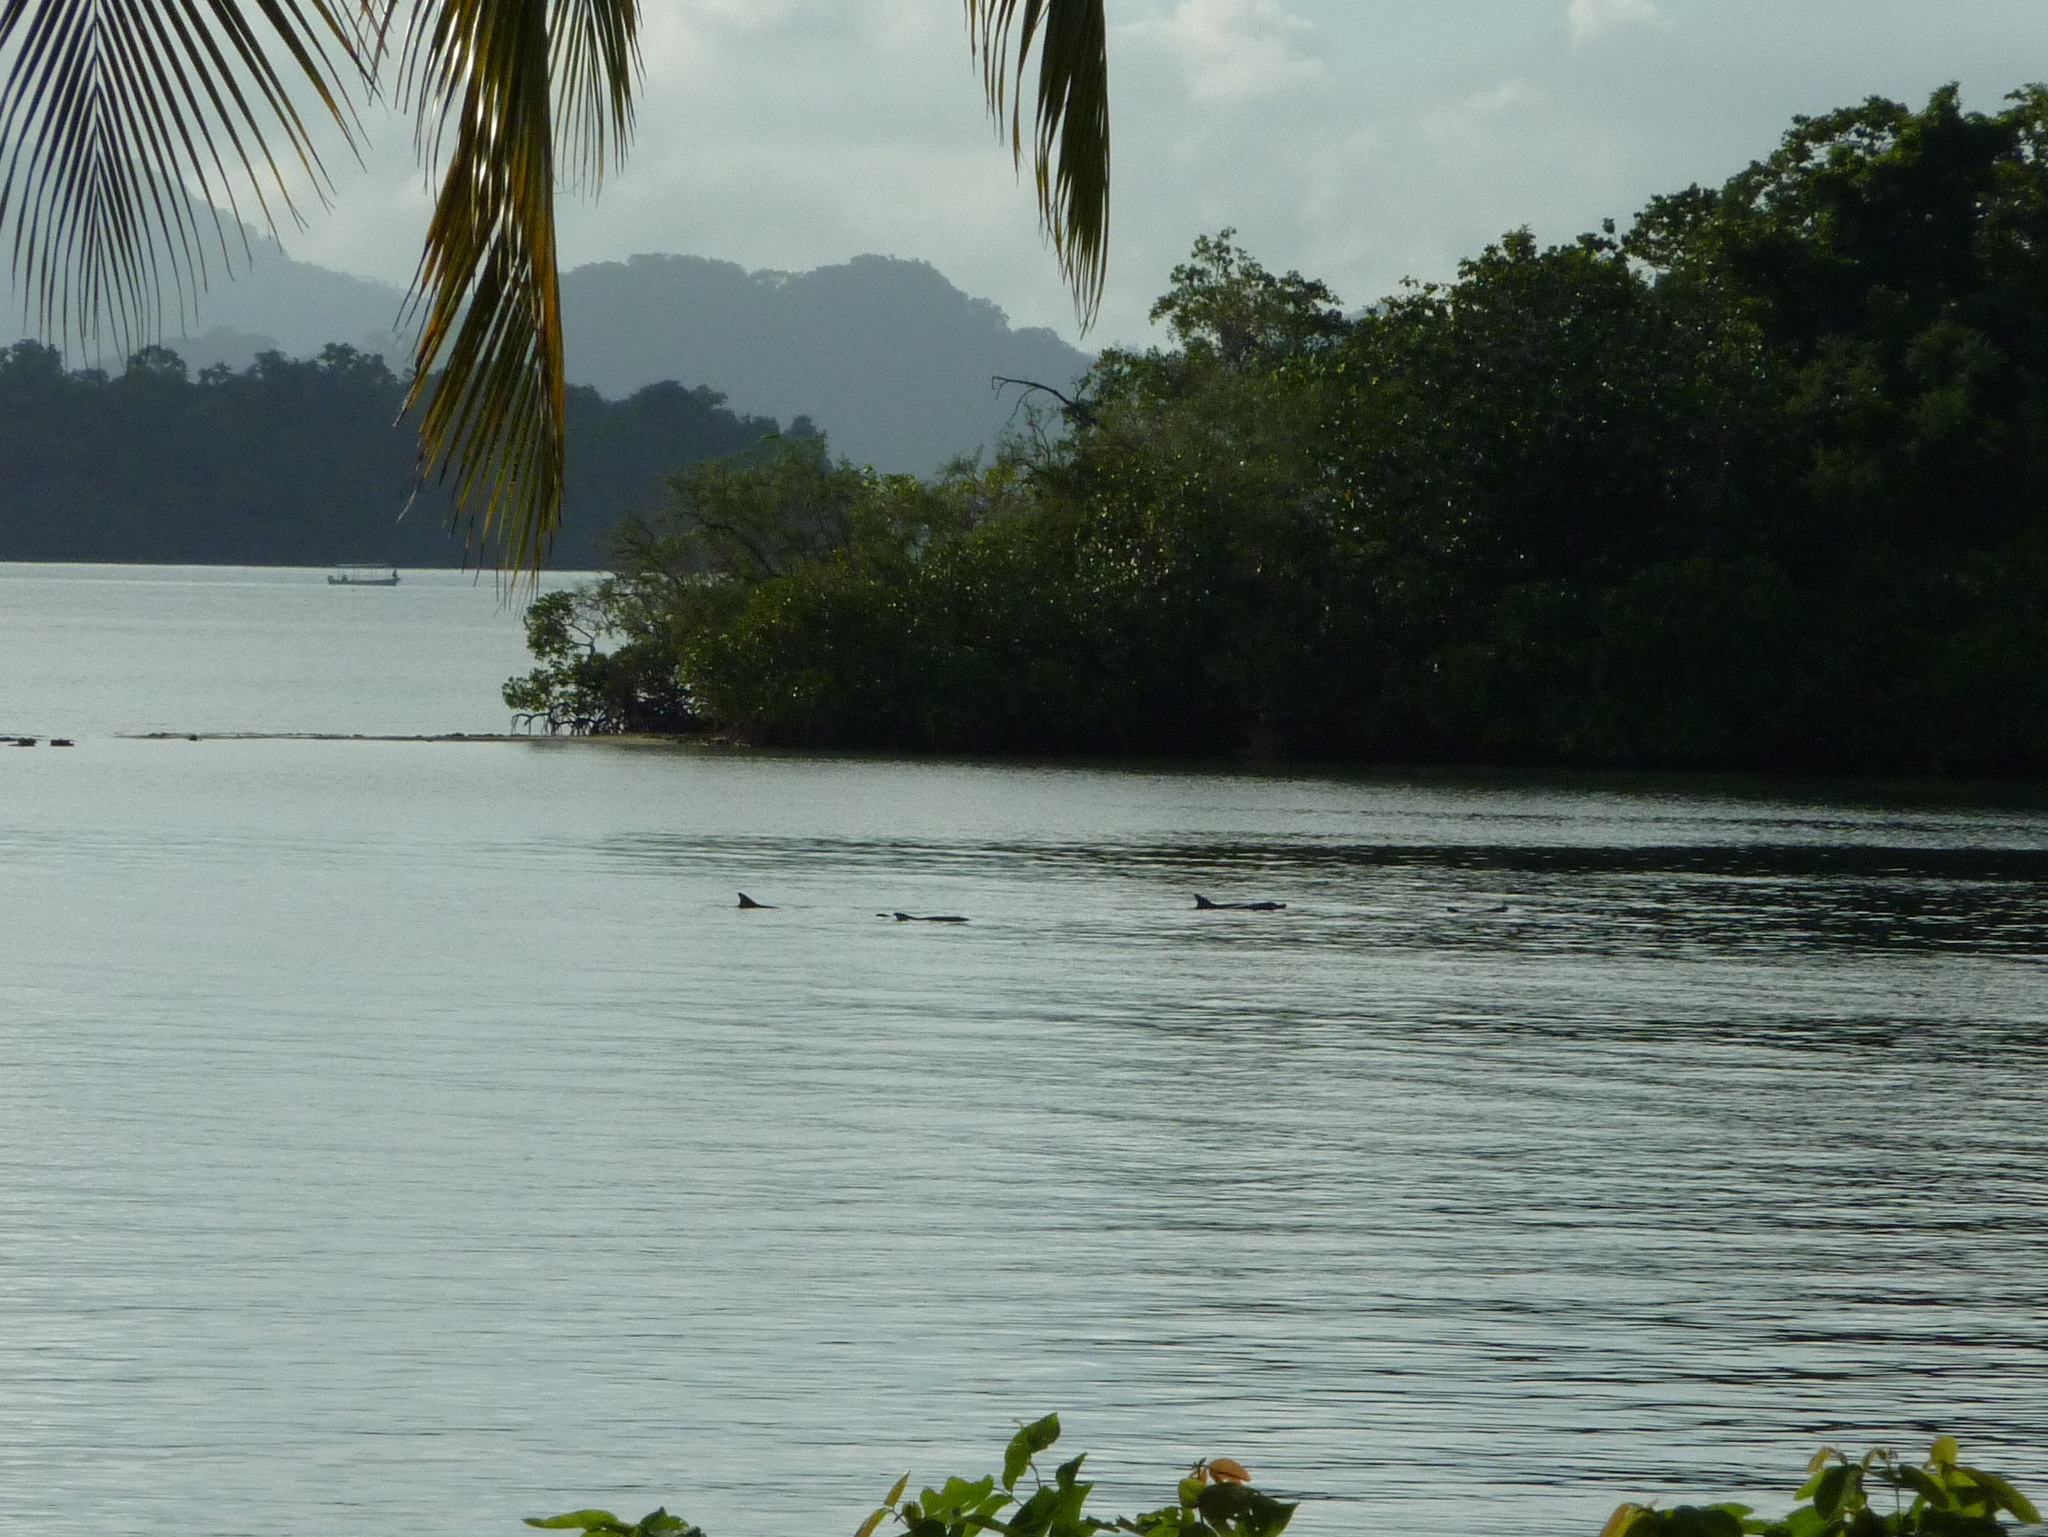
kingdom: Animalia
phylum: Chordata
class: Mammalia
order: Cetacea
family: Delphinidae
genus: Tursiops
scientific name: Tursiops truncatus
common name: Bottlenose dolphin
